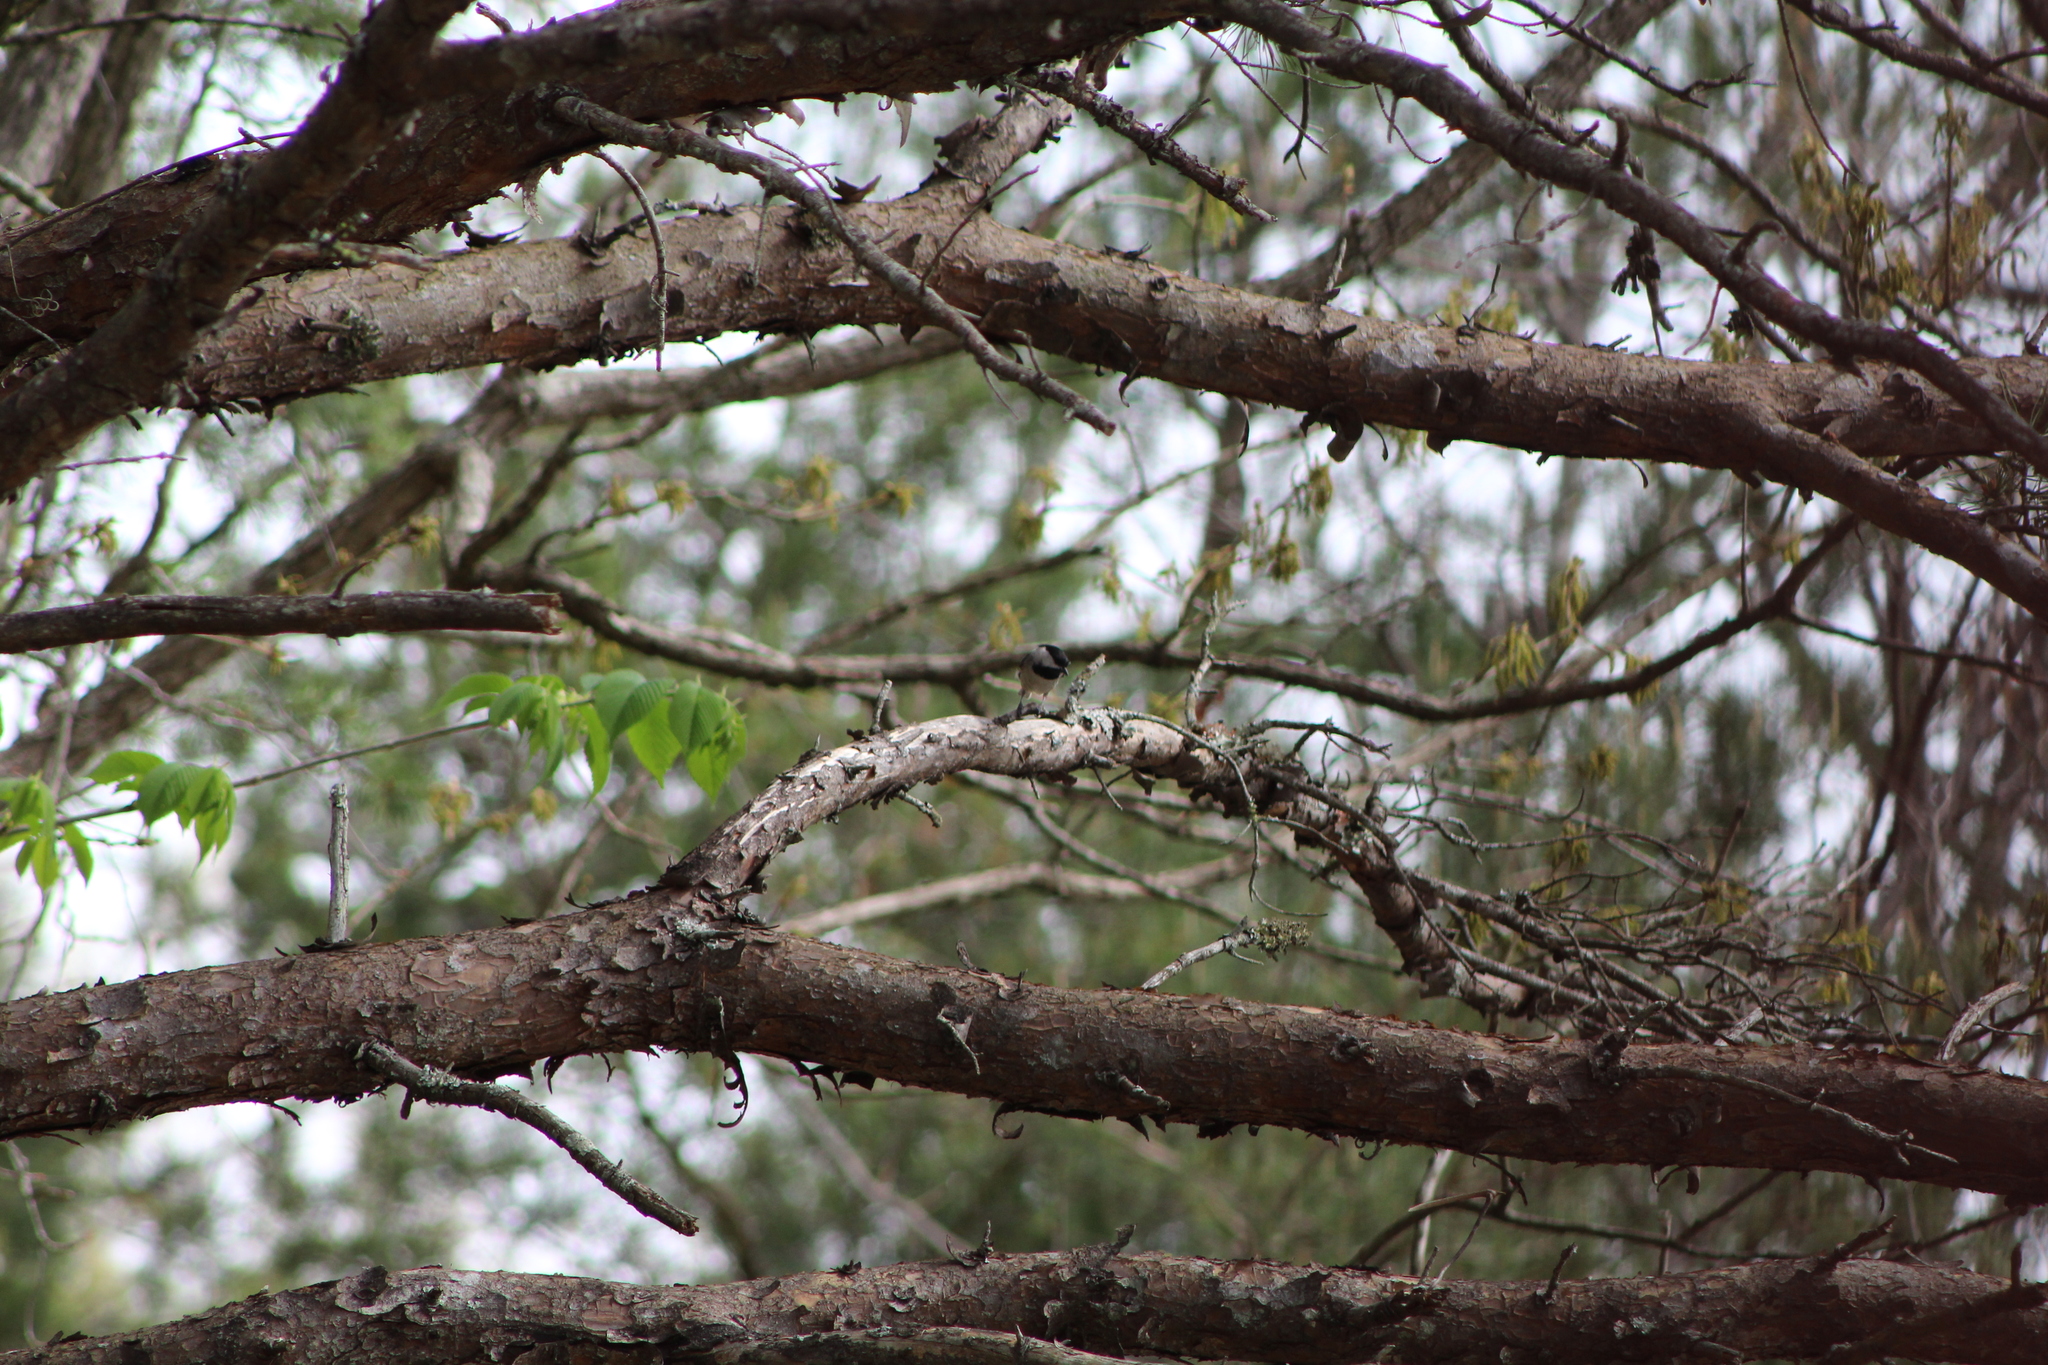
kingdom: Animalia
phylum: Chordata
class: Aves
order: Passeriformes
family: Paridae
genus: Poecile
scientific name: Poecile carolinensis
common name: Carolina chickadee
